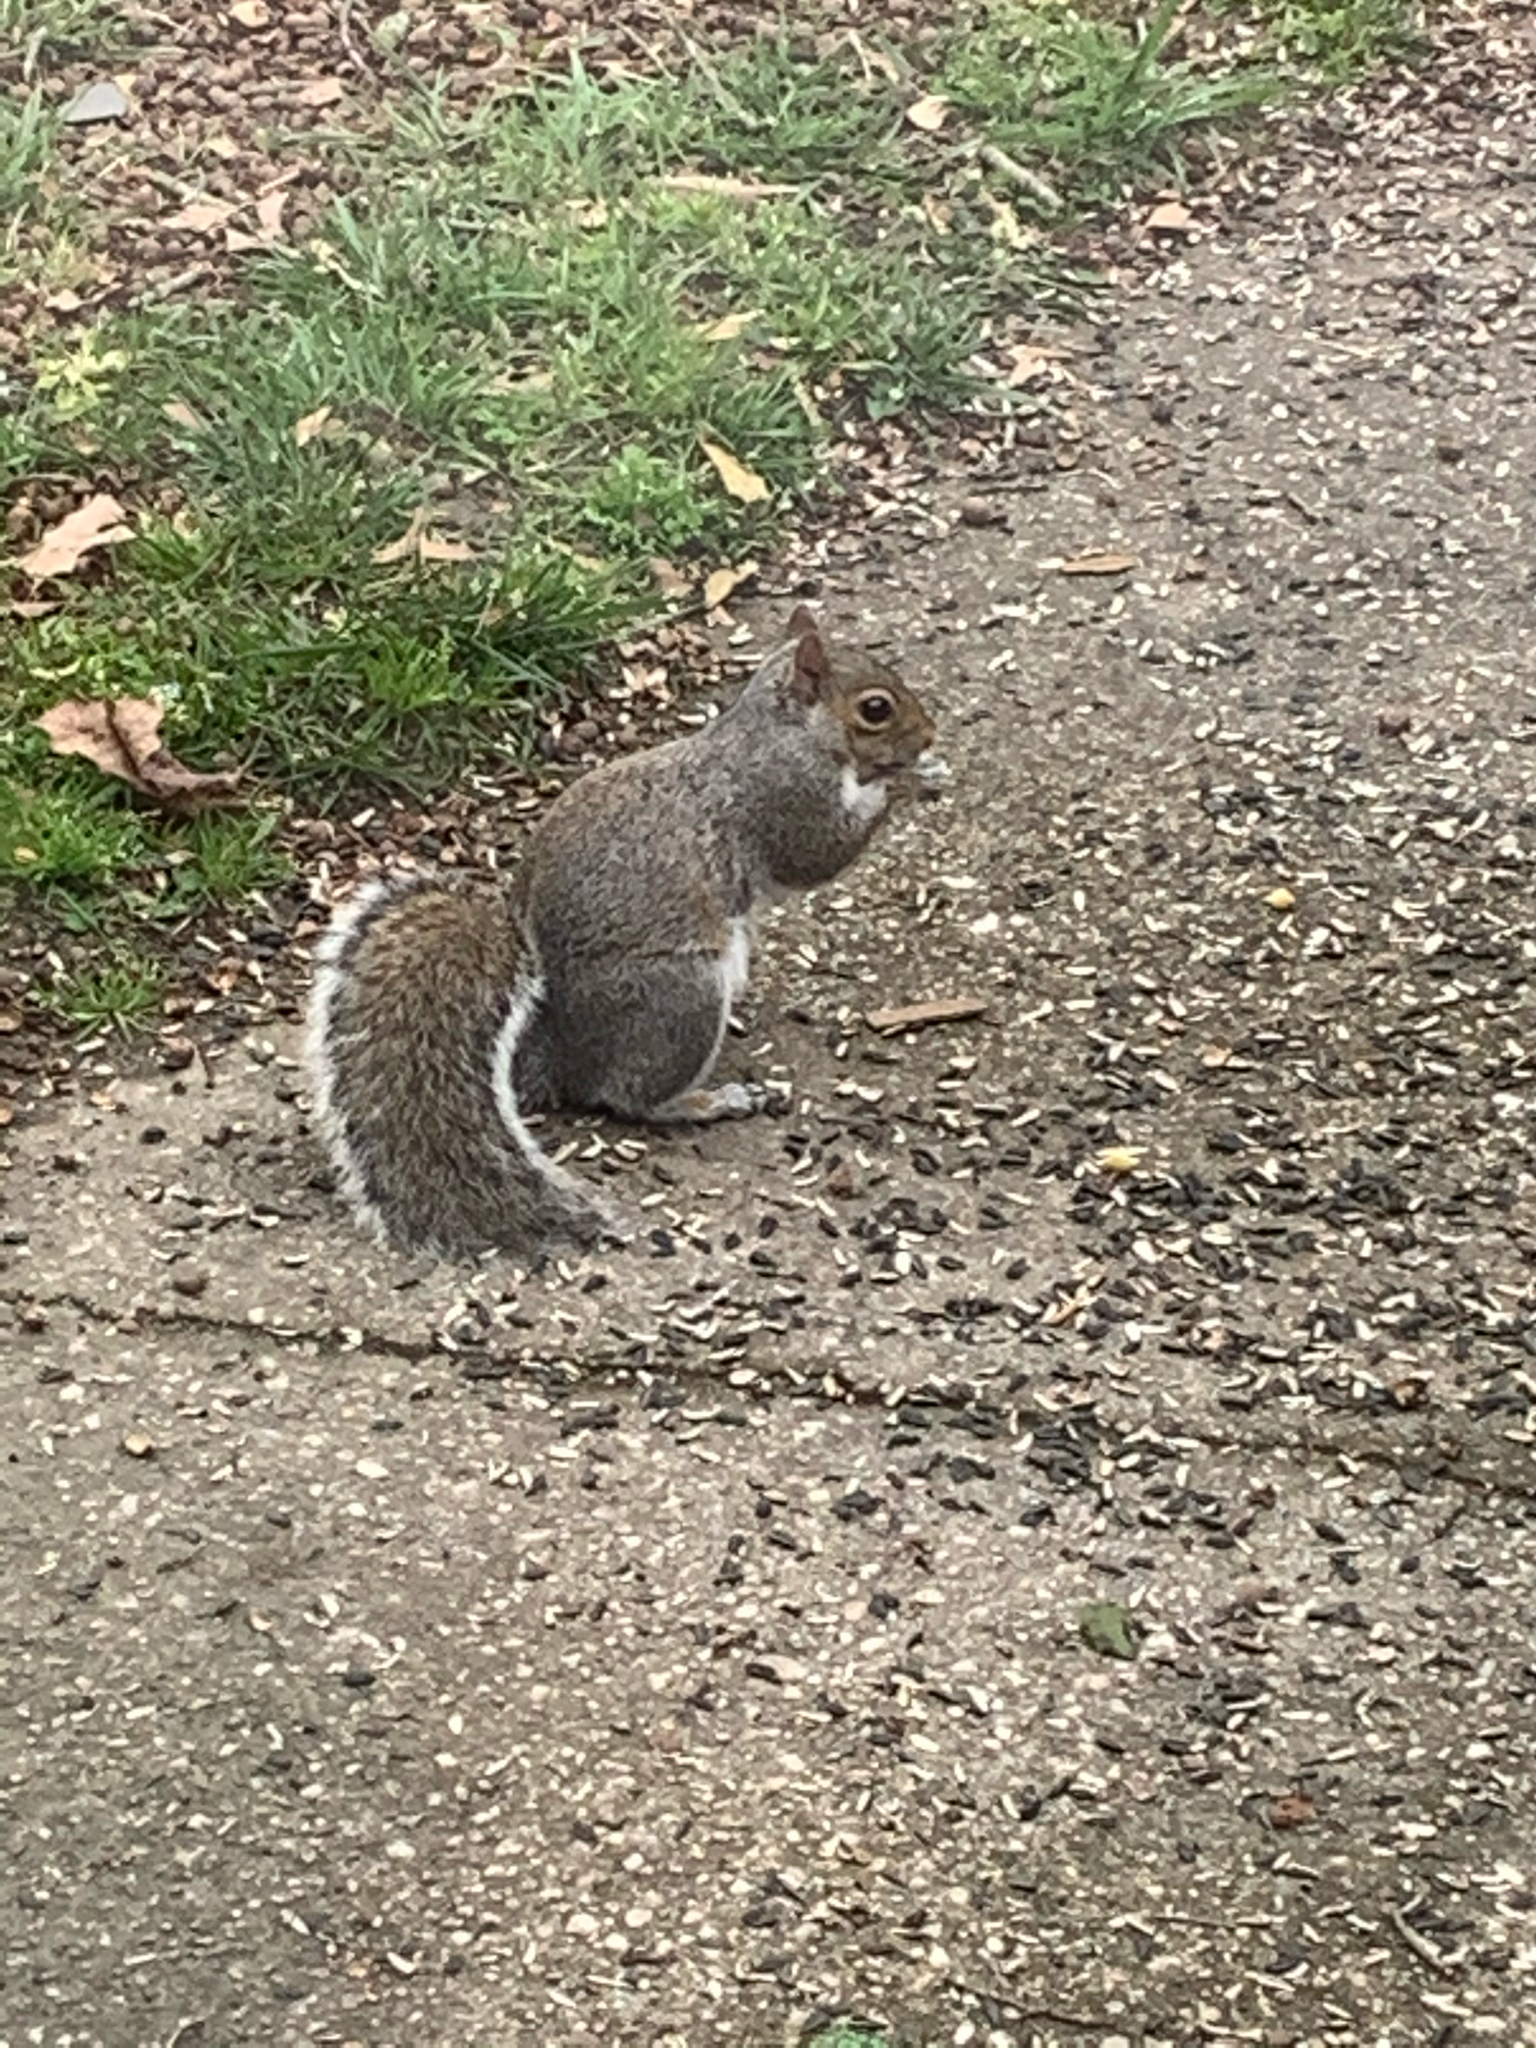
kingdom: Animalia
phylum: Chordata
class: Mammalia
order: Rodentia
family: Sciuridae
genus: Sciurus
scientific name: Sciurus carolinensis
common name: Eastern gray squirrel
